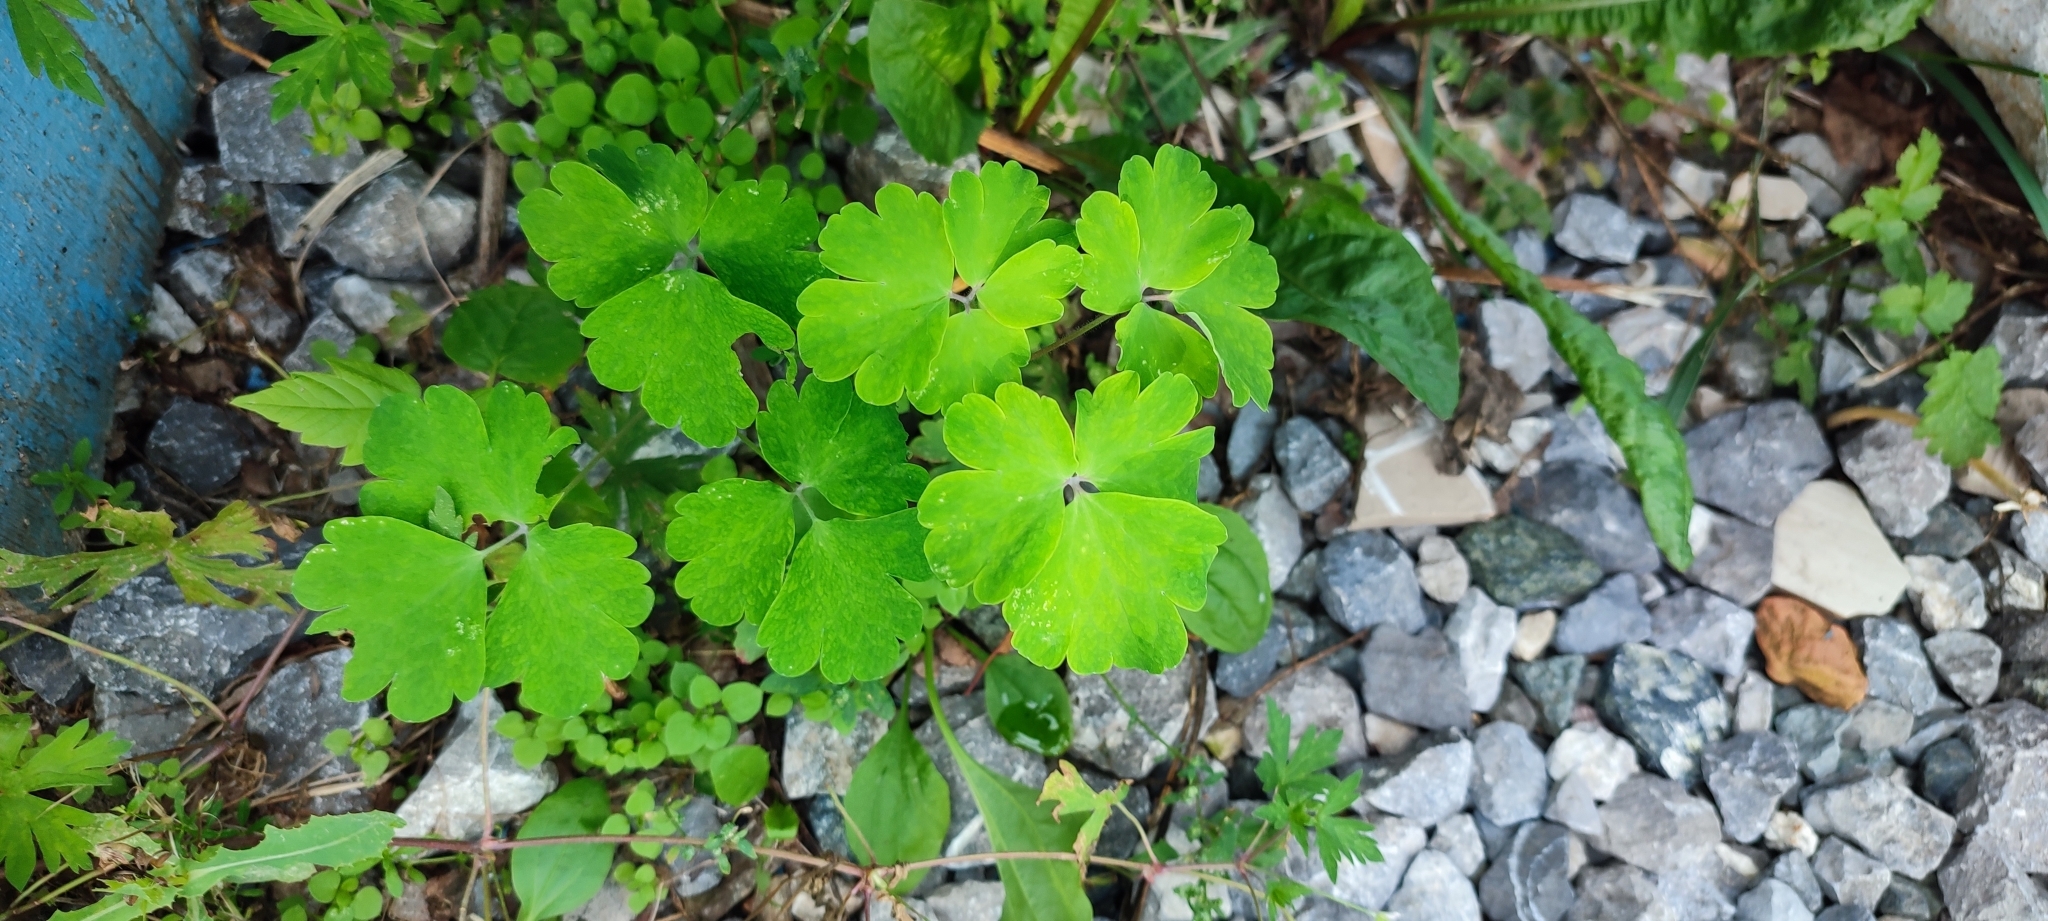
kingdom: Plantae
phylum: Tracheophyta
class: Magnoliopsida
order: Ranunculales
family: Ranunculaceae
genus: Aquilegia
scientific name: Aquilegia vulgaris
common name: Columbine
